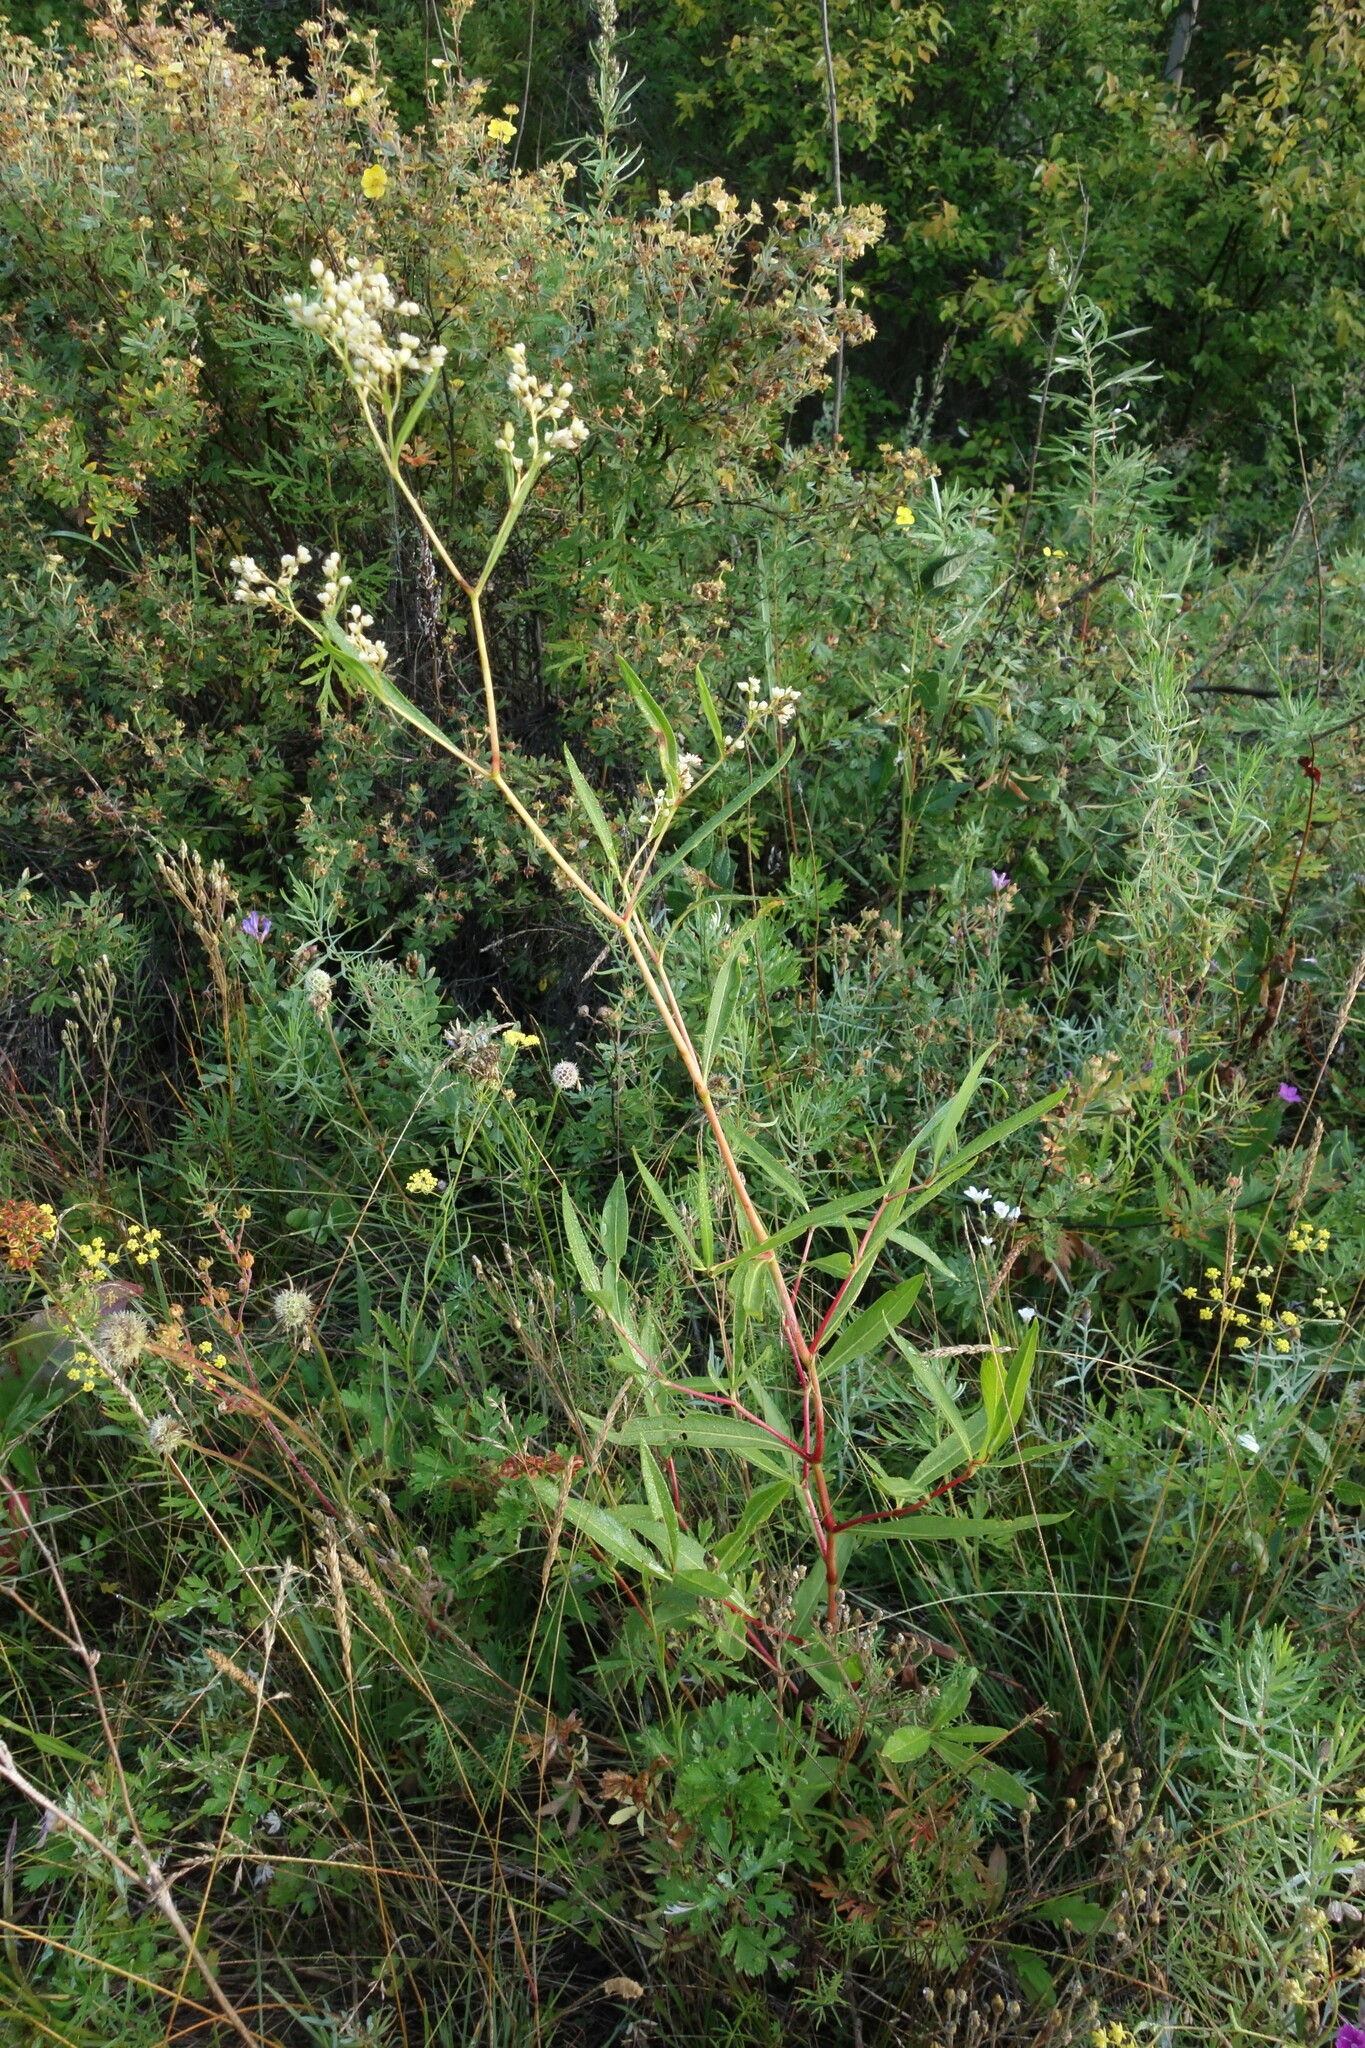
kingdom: Plantae
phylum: Tracheophyta
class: Magnoliopsida
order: Caryophyllales
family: Polygonaceae
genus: Koenigia
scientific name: Koenigia divaricata
